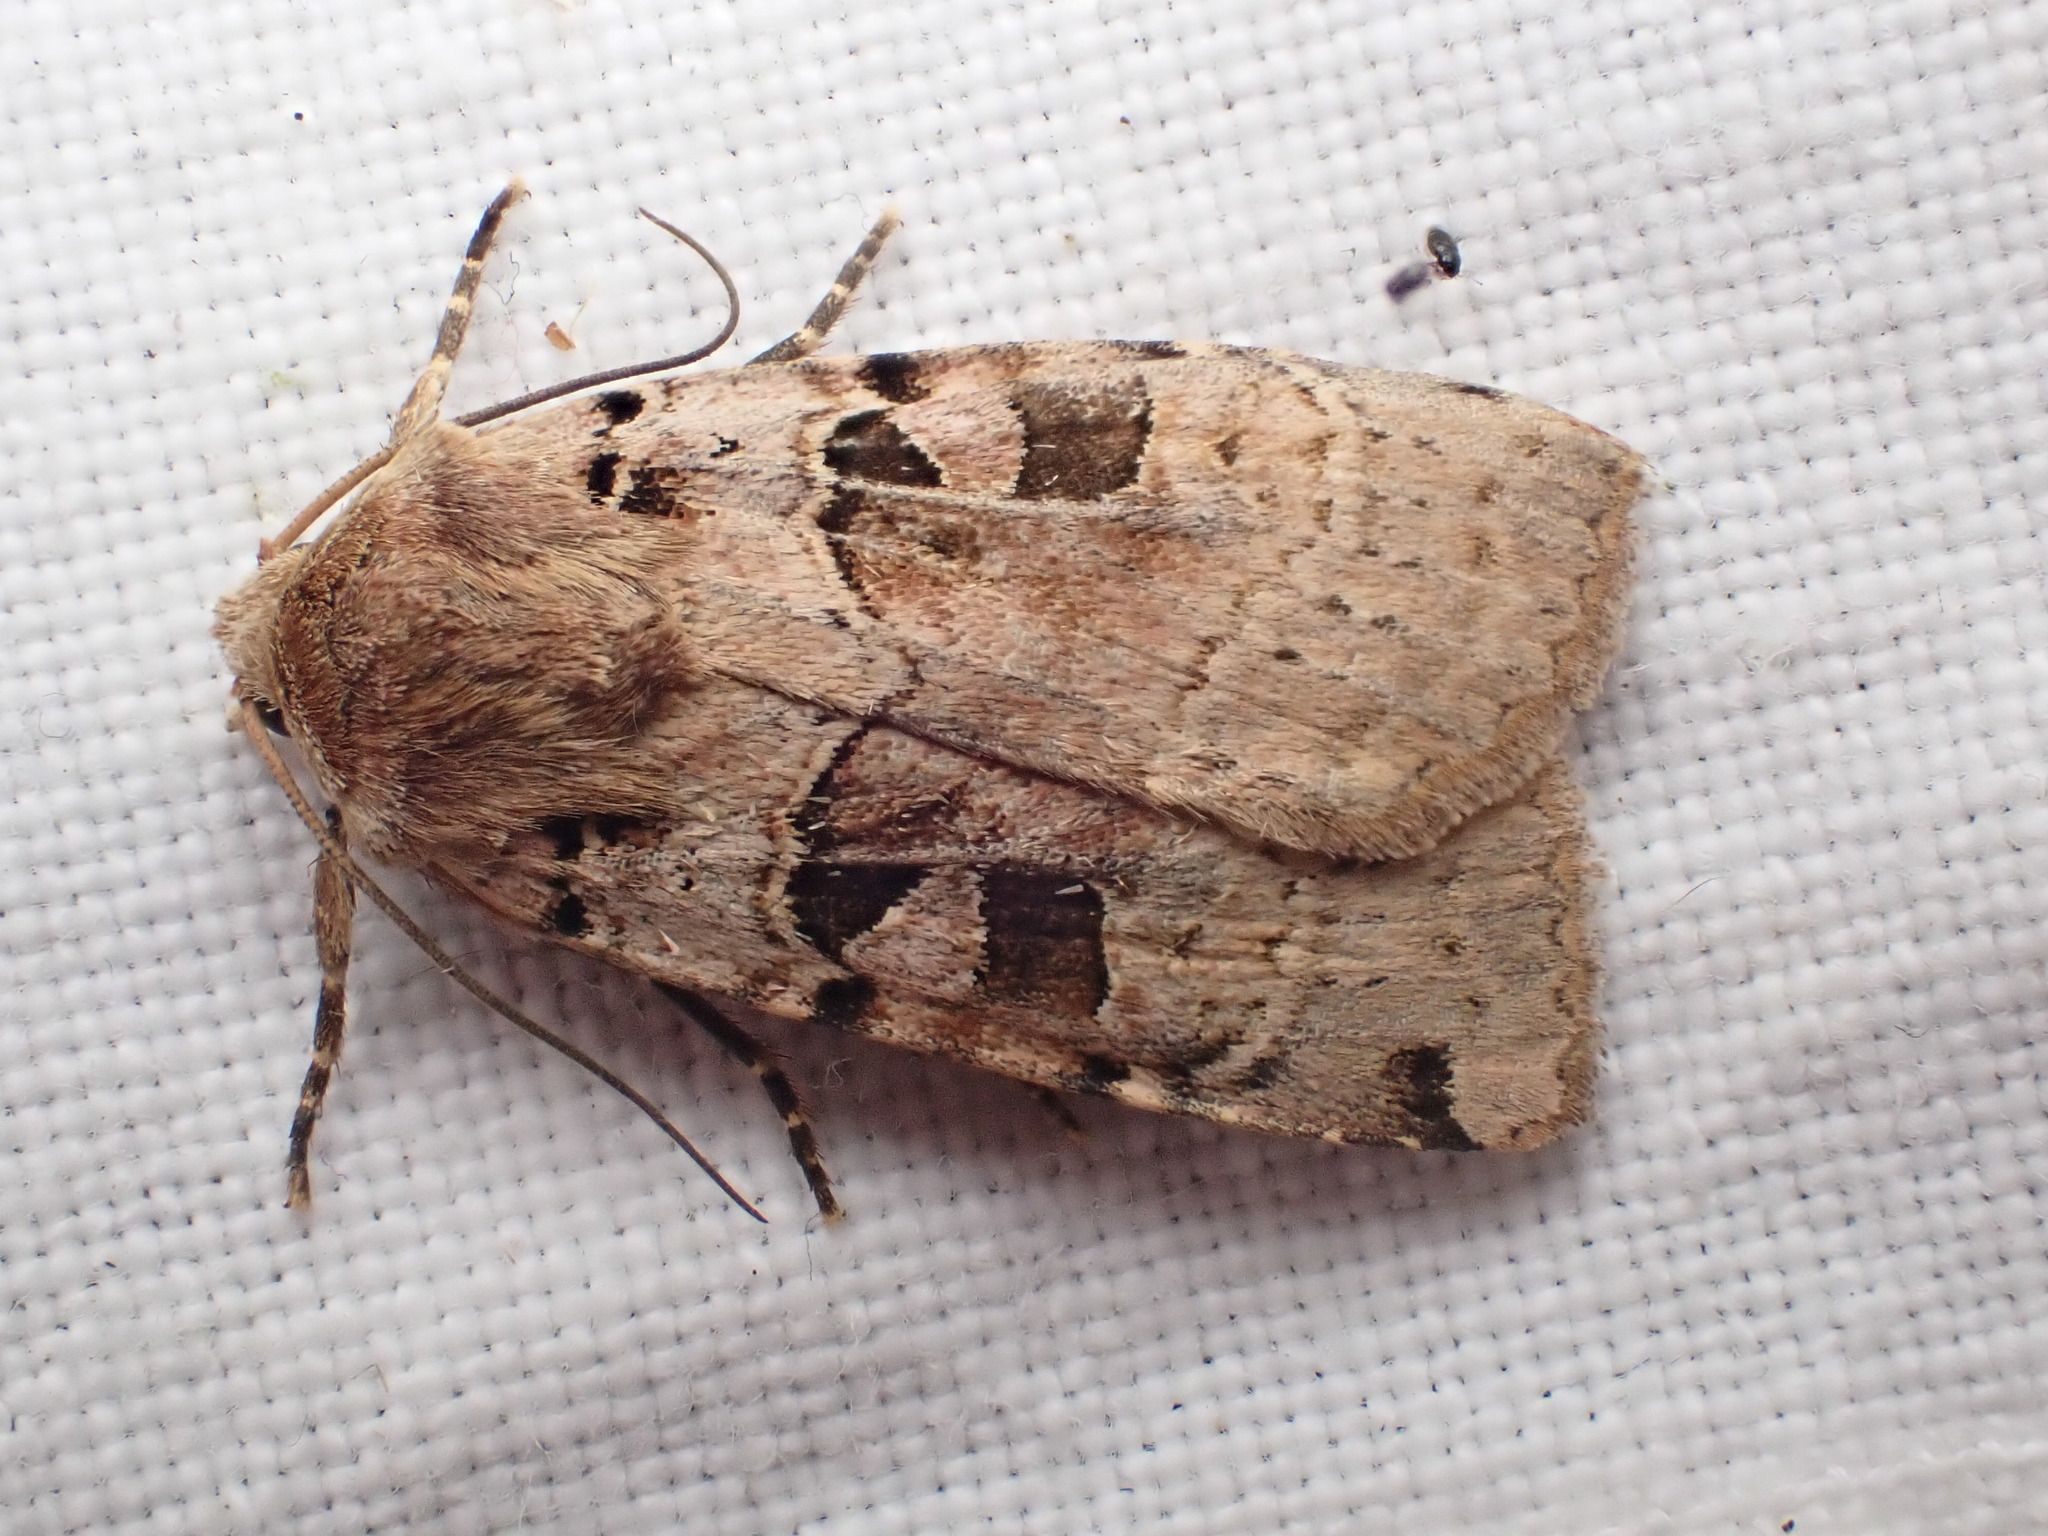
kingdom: Animalia
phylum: Arthropoda
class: Insecta
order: Lepidoptera
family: Noctuidae
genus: Xestia
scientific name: Xestia triangulum
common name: Double square-spot
